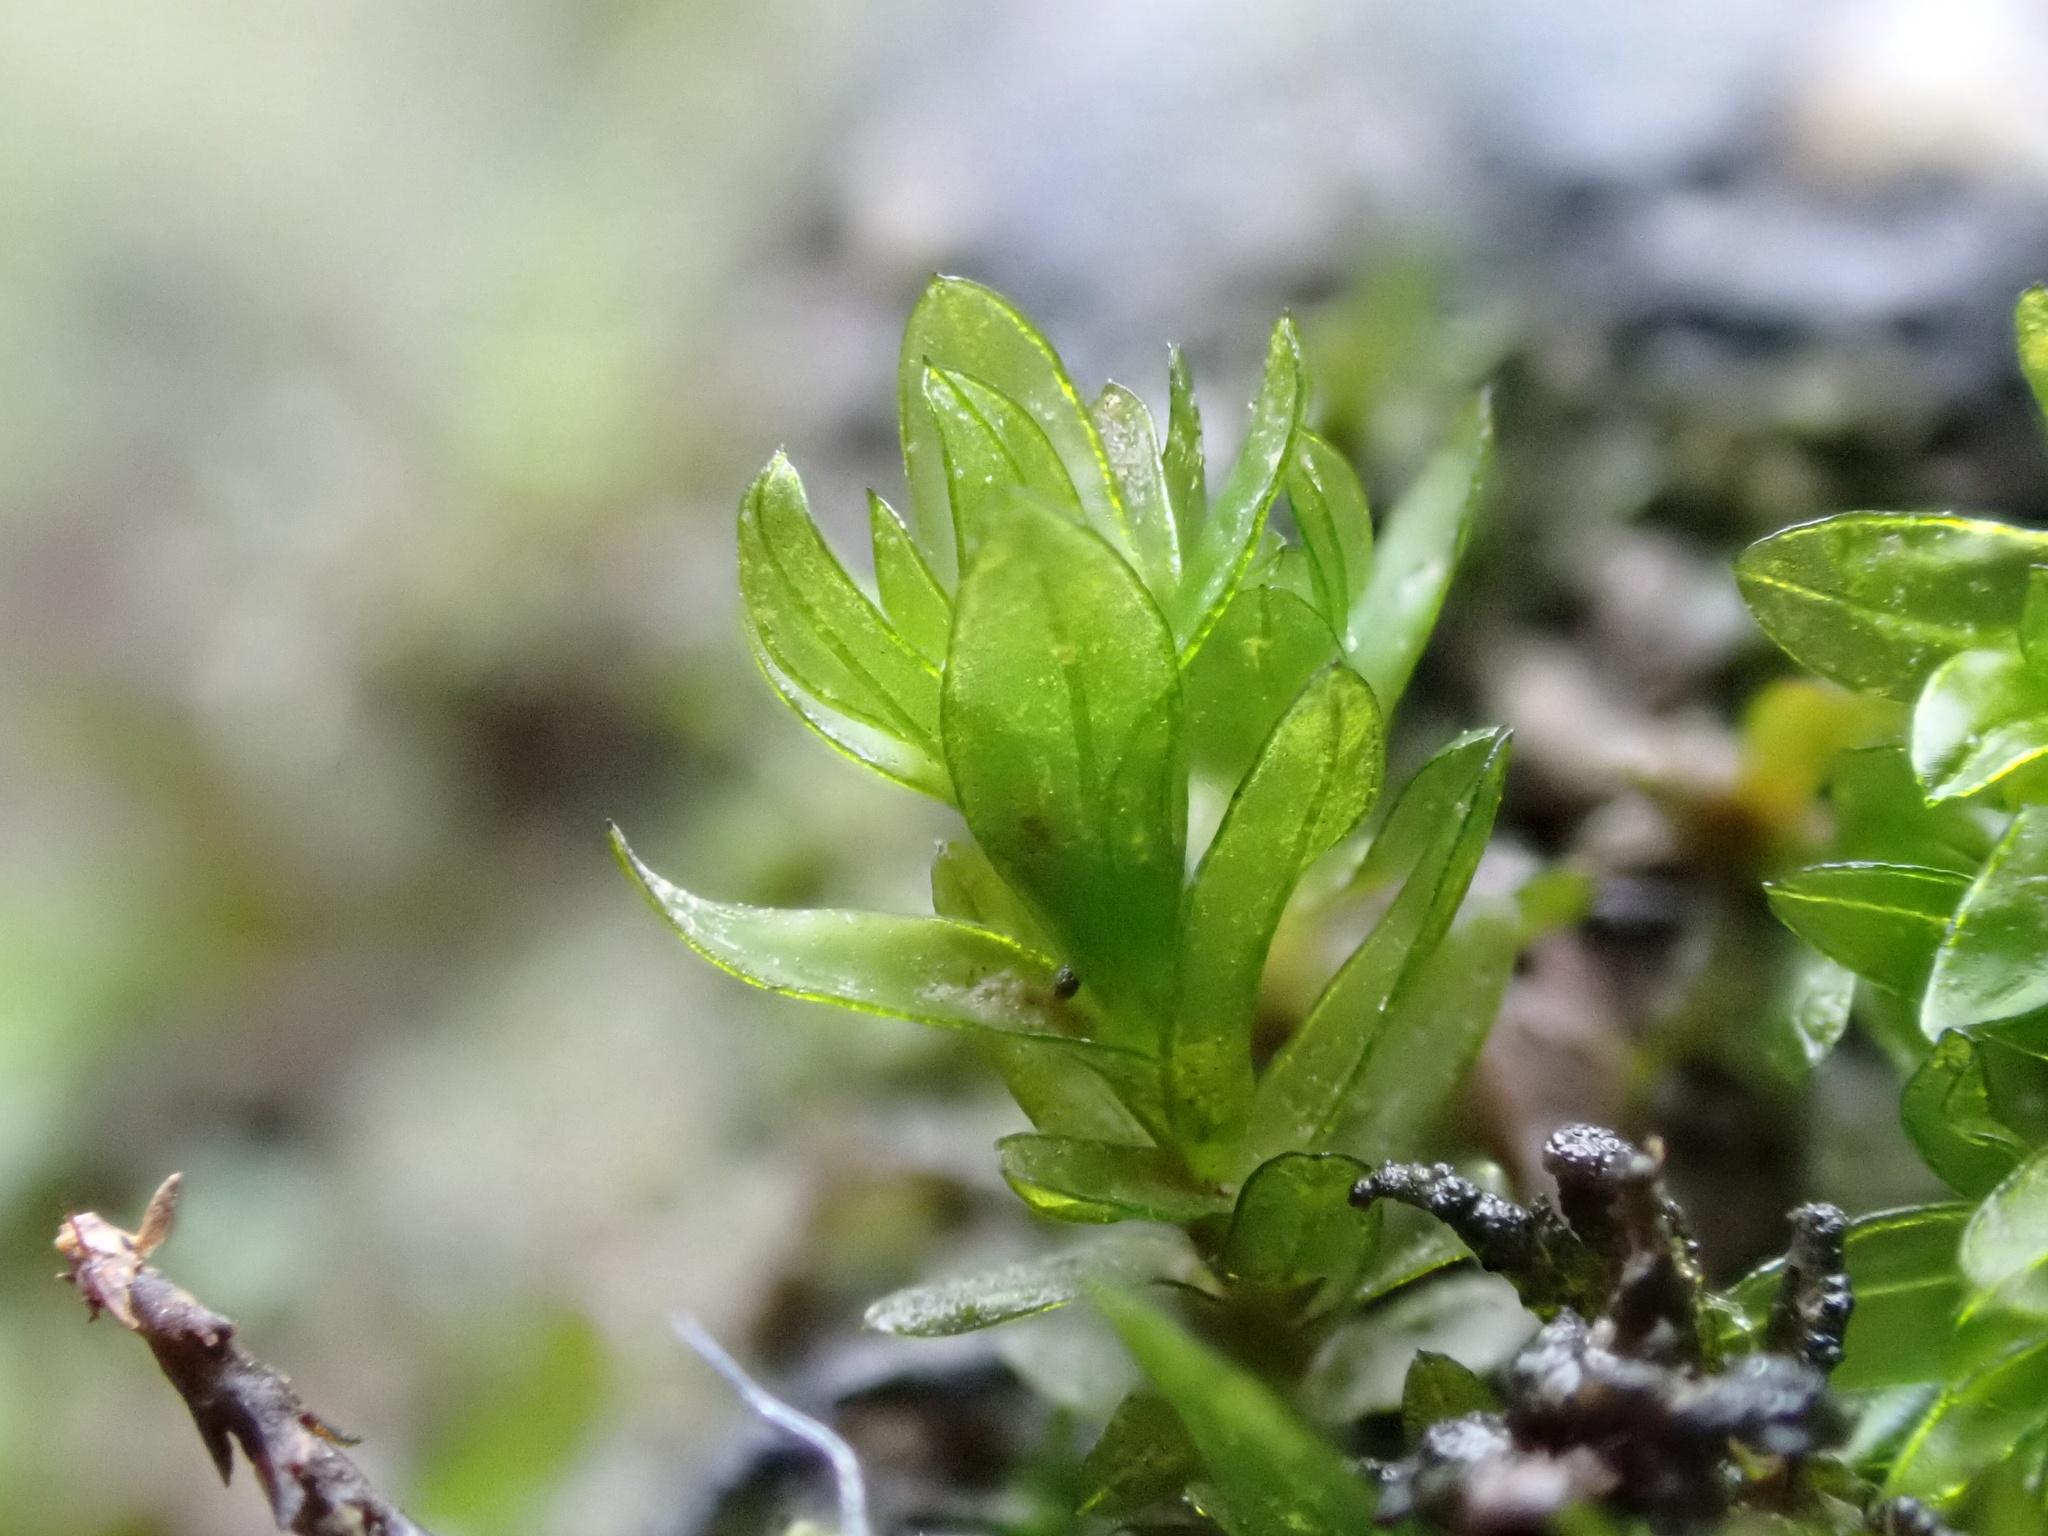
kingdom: Plantae
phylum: Bryophyta
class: Bryopsida
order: Pottiales
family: Pottiaceae
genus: Cinclidotus
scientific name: Cinclidotus riparius
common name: Fountain lattice-moss
